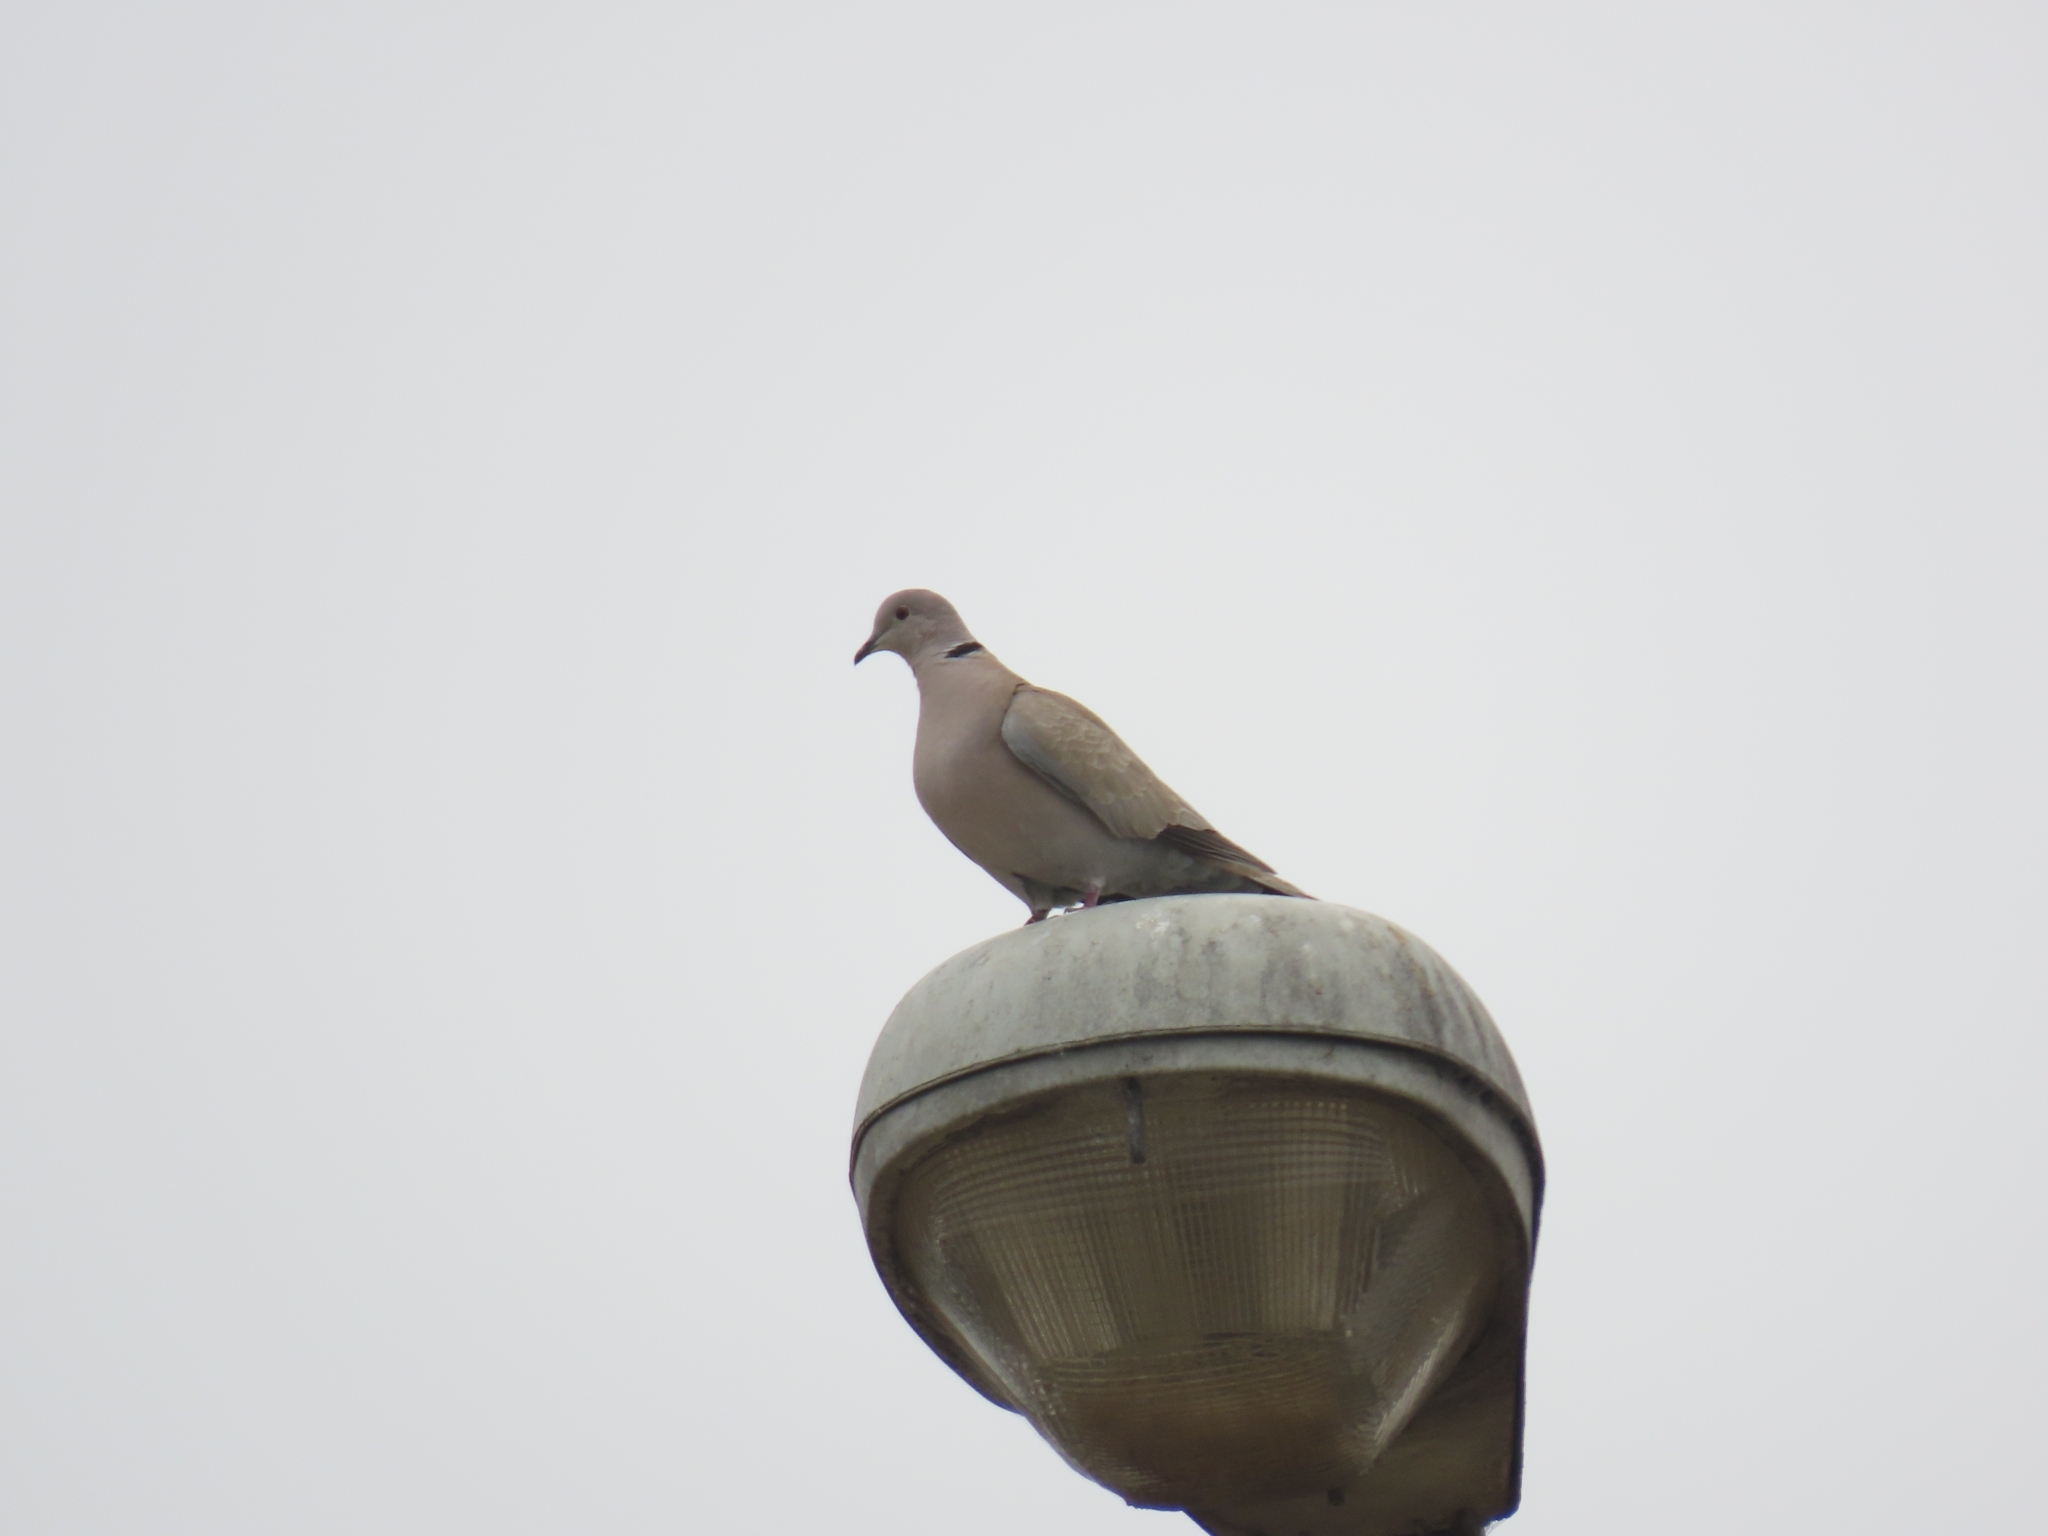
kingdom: Animalia
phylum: Chordata
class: Aves
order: Columbiformes
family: Columbidae
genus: Streptopelia
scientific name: Streptopelia decaocto
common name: Eurasian collared dove
